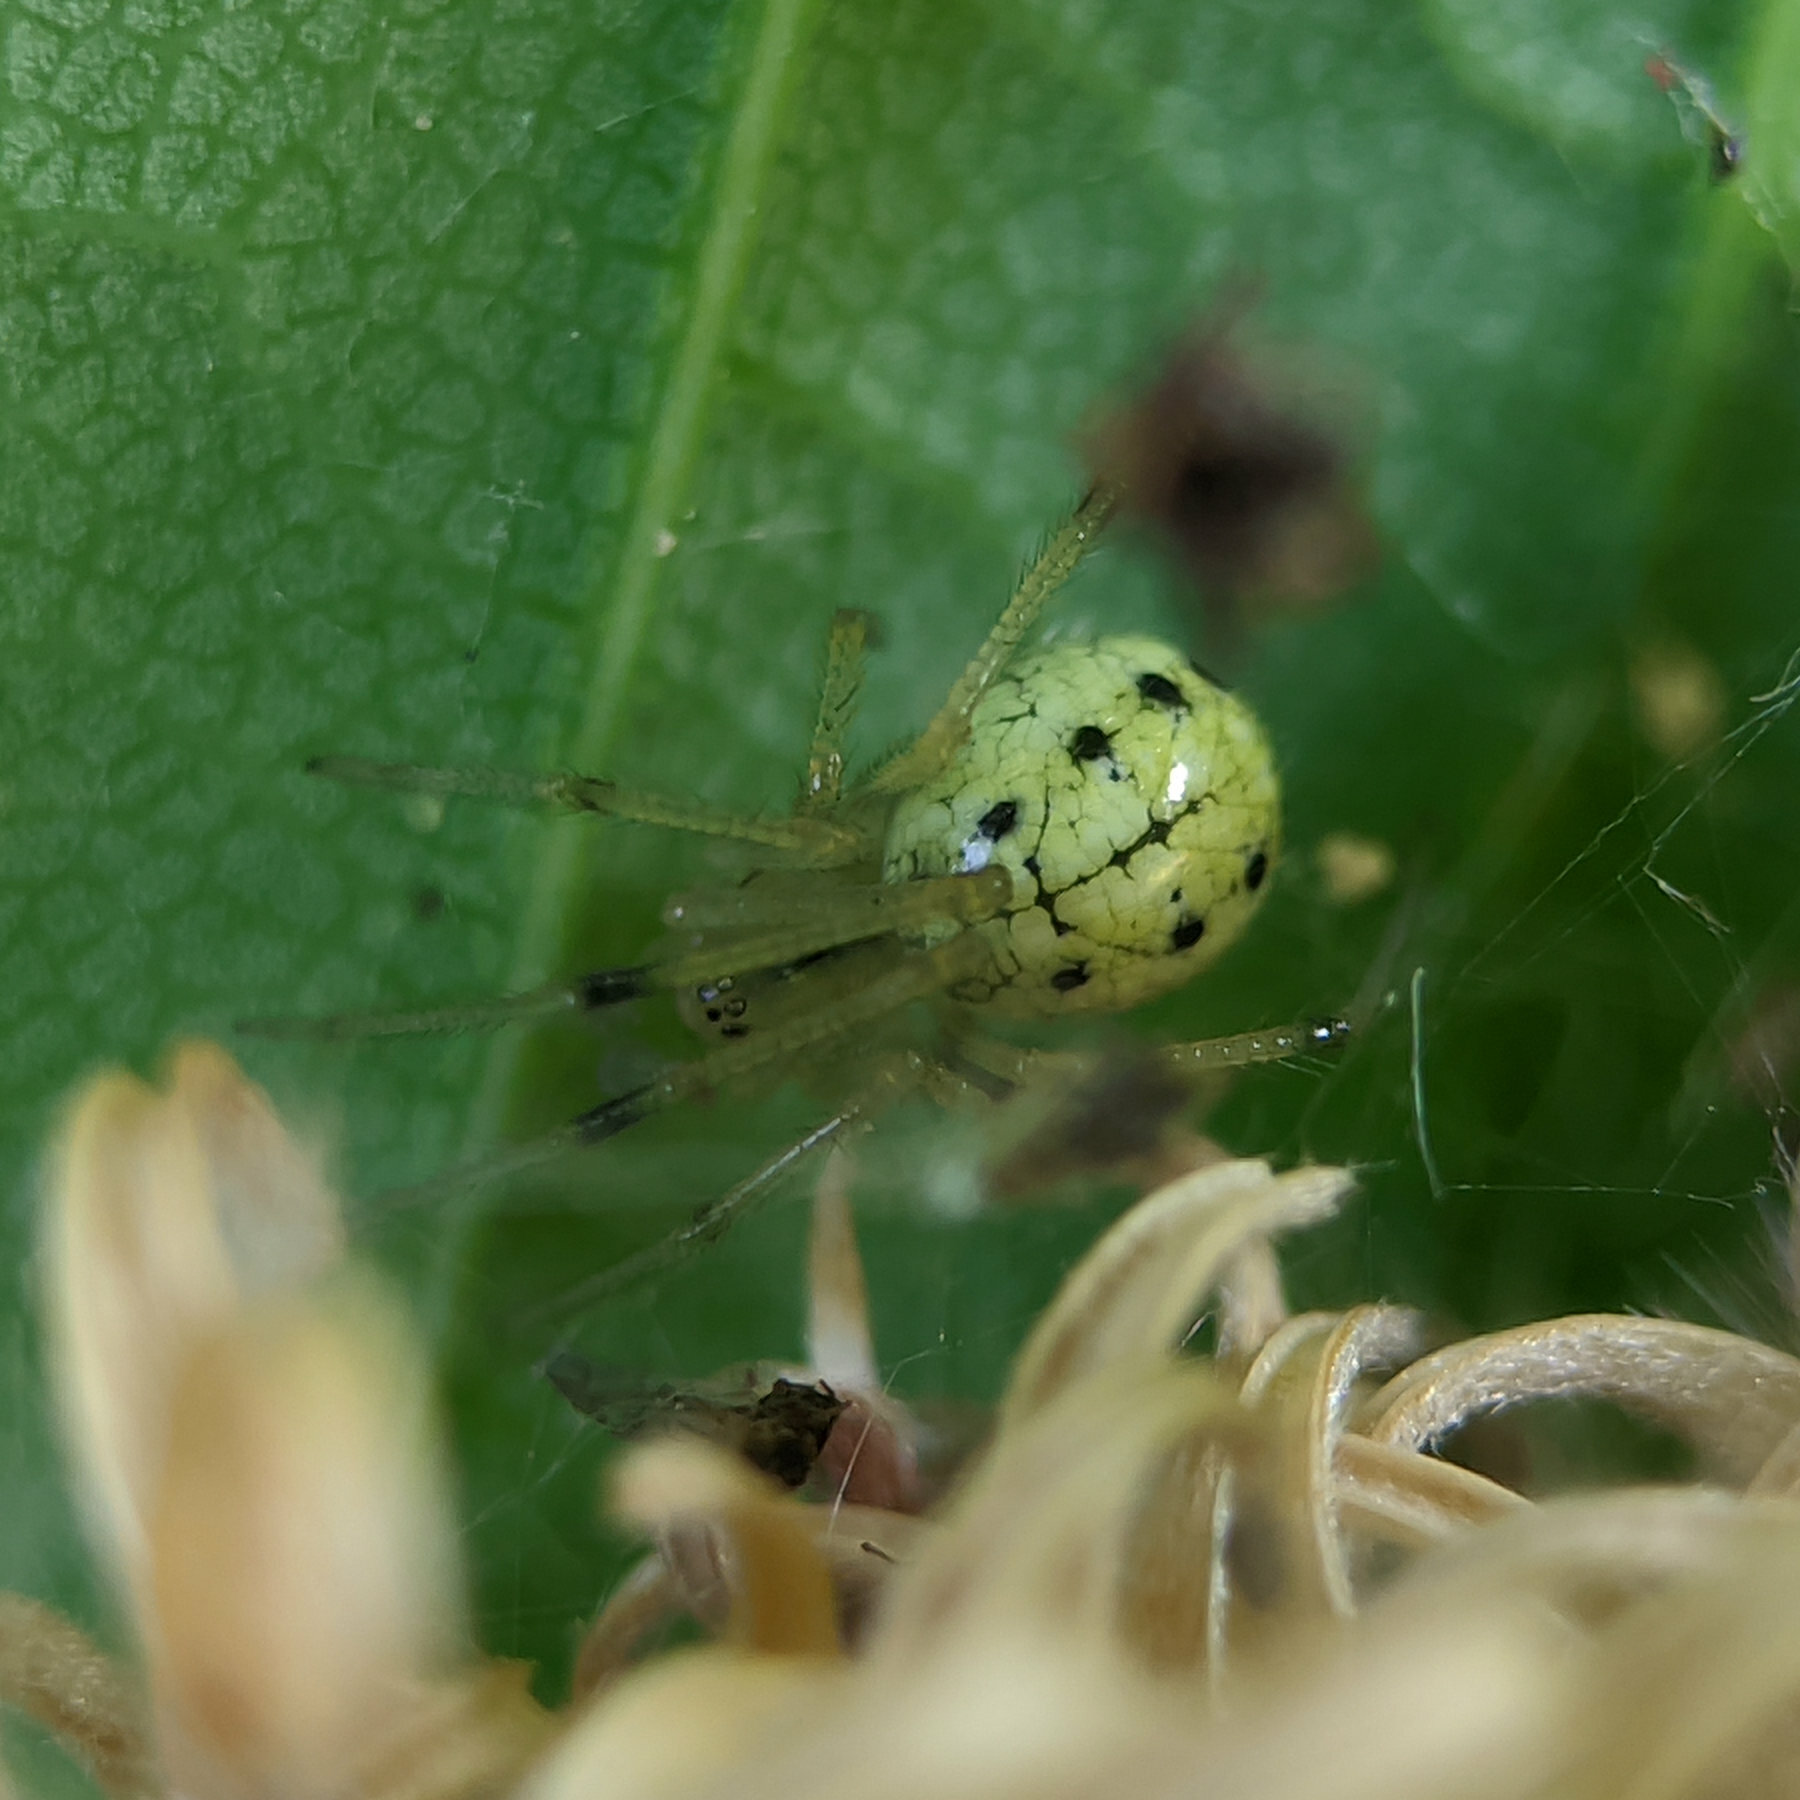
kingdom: Animalia
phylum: Arthropoda
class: Arachnida
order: Araneae
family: Theridiidae
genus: Enoplognatha
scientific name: Enoplognatha
